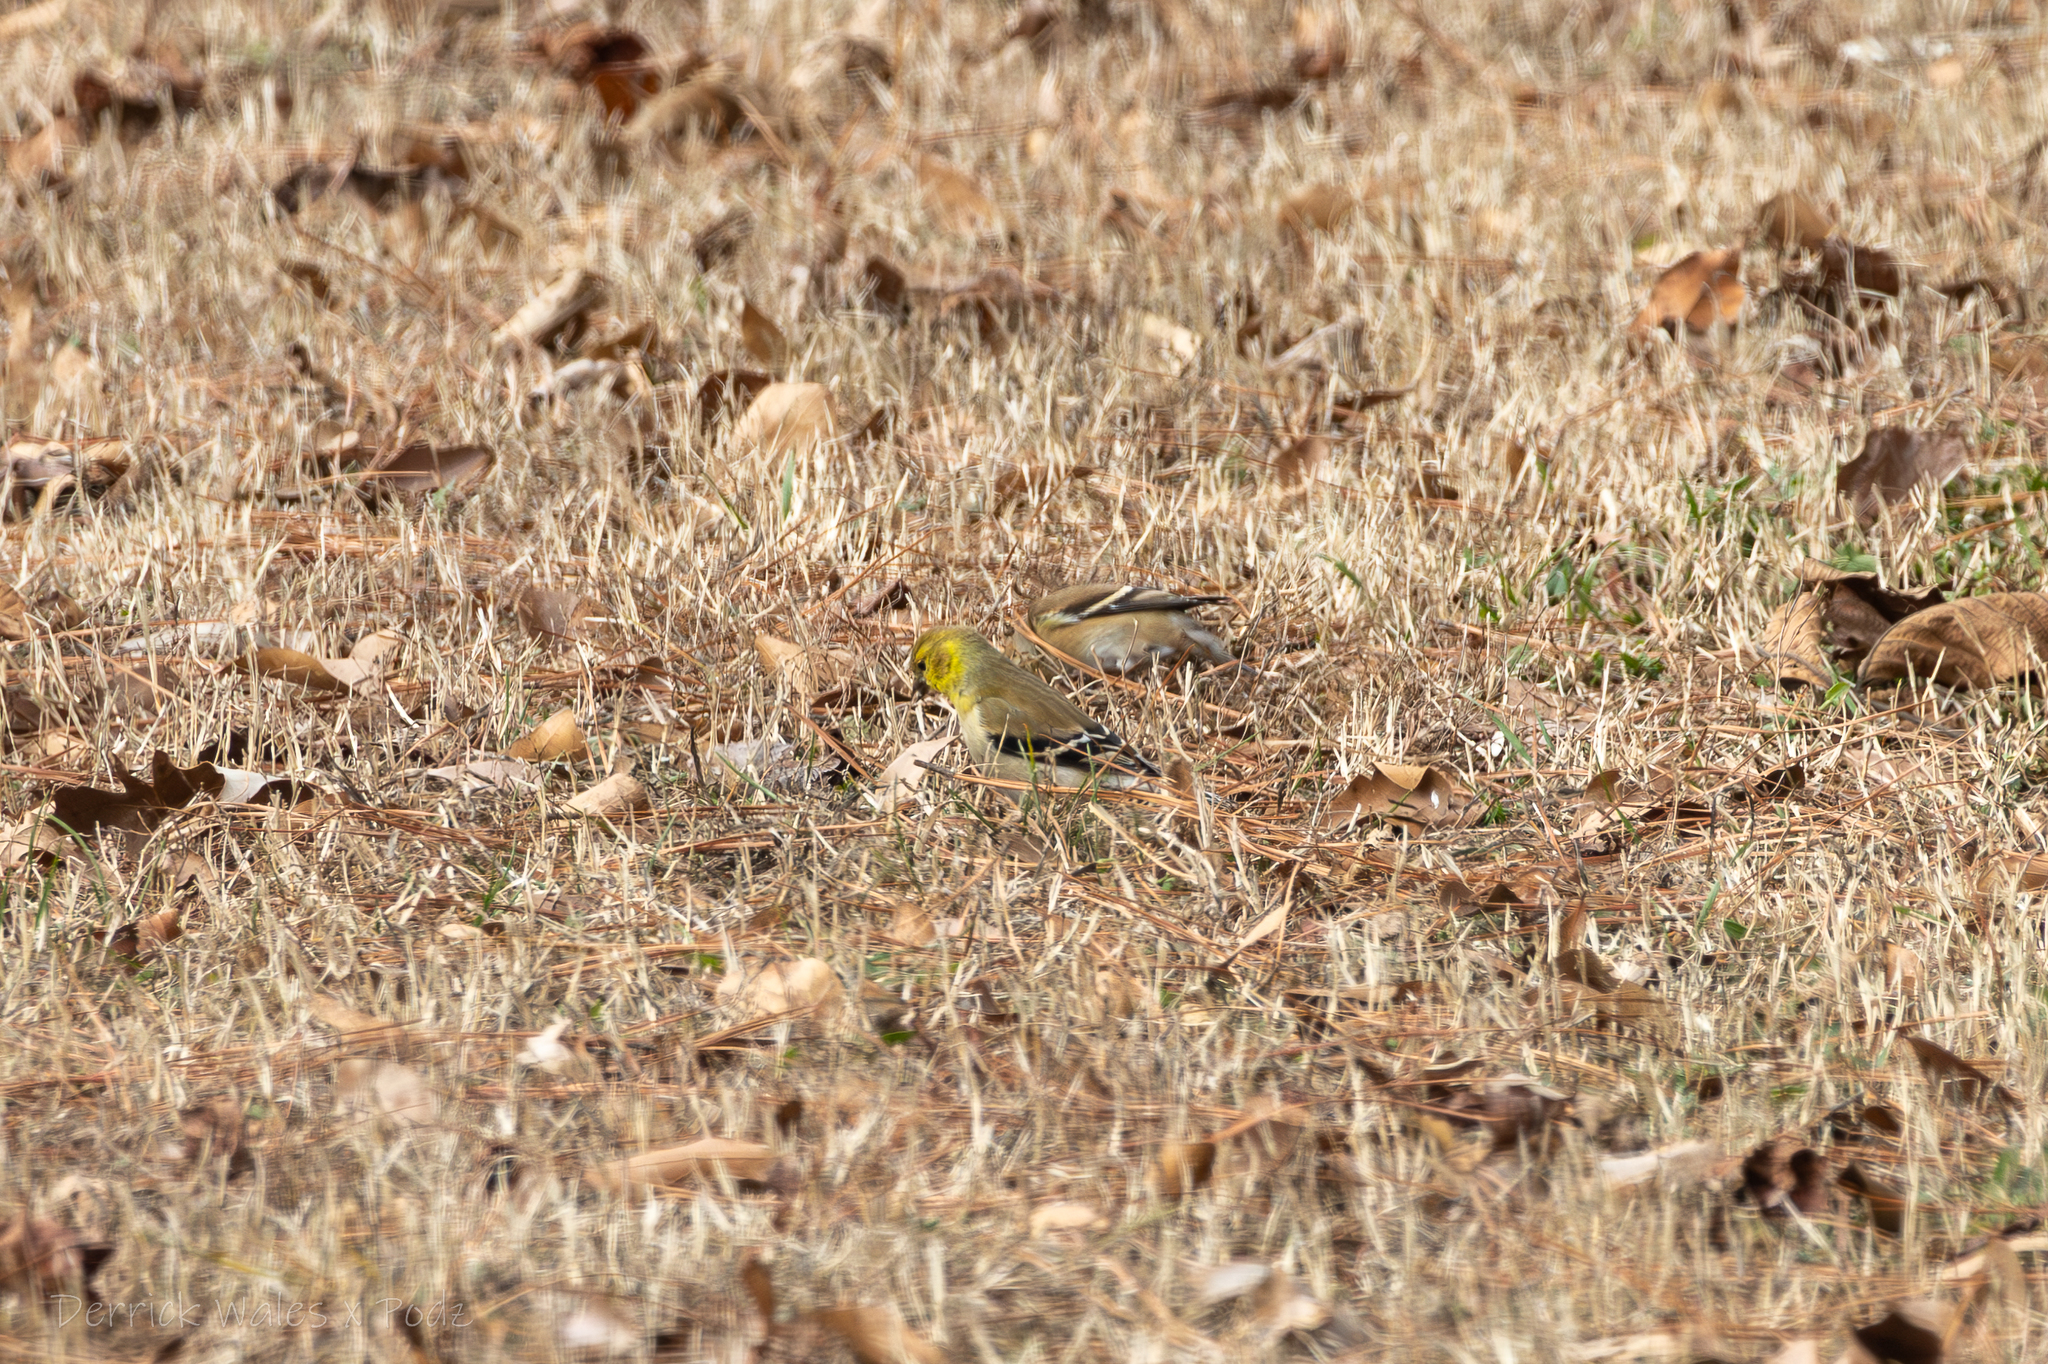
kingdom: Animalia
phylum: Chordata
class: Aves
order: Passeriformes
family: Fringillidae
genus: Spinus
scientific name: Spinus tristis
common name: American goldfinch
